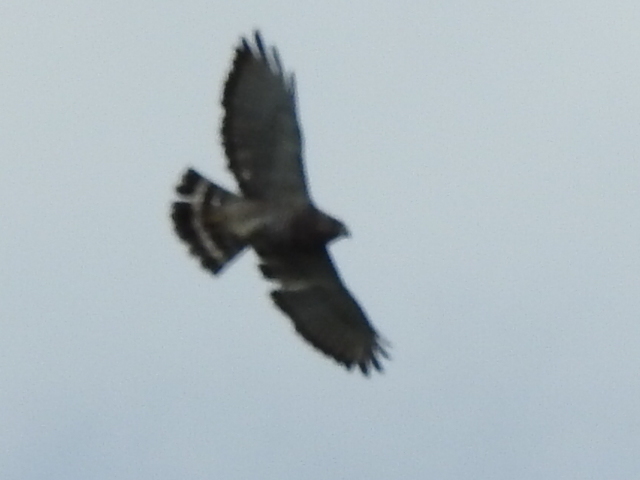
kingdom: Animalia
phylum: Chordata
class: Aves
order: Accipitriformes
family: Accipitridae
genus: Buteo
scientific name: Buteo platypterus
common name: Broad-winged hawk
